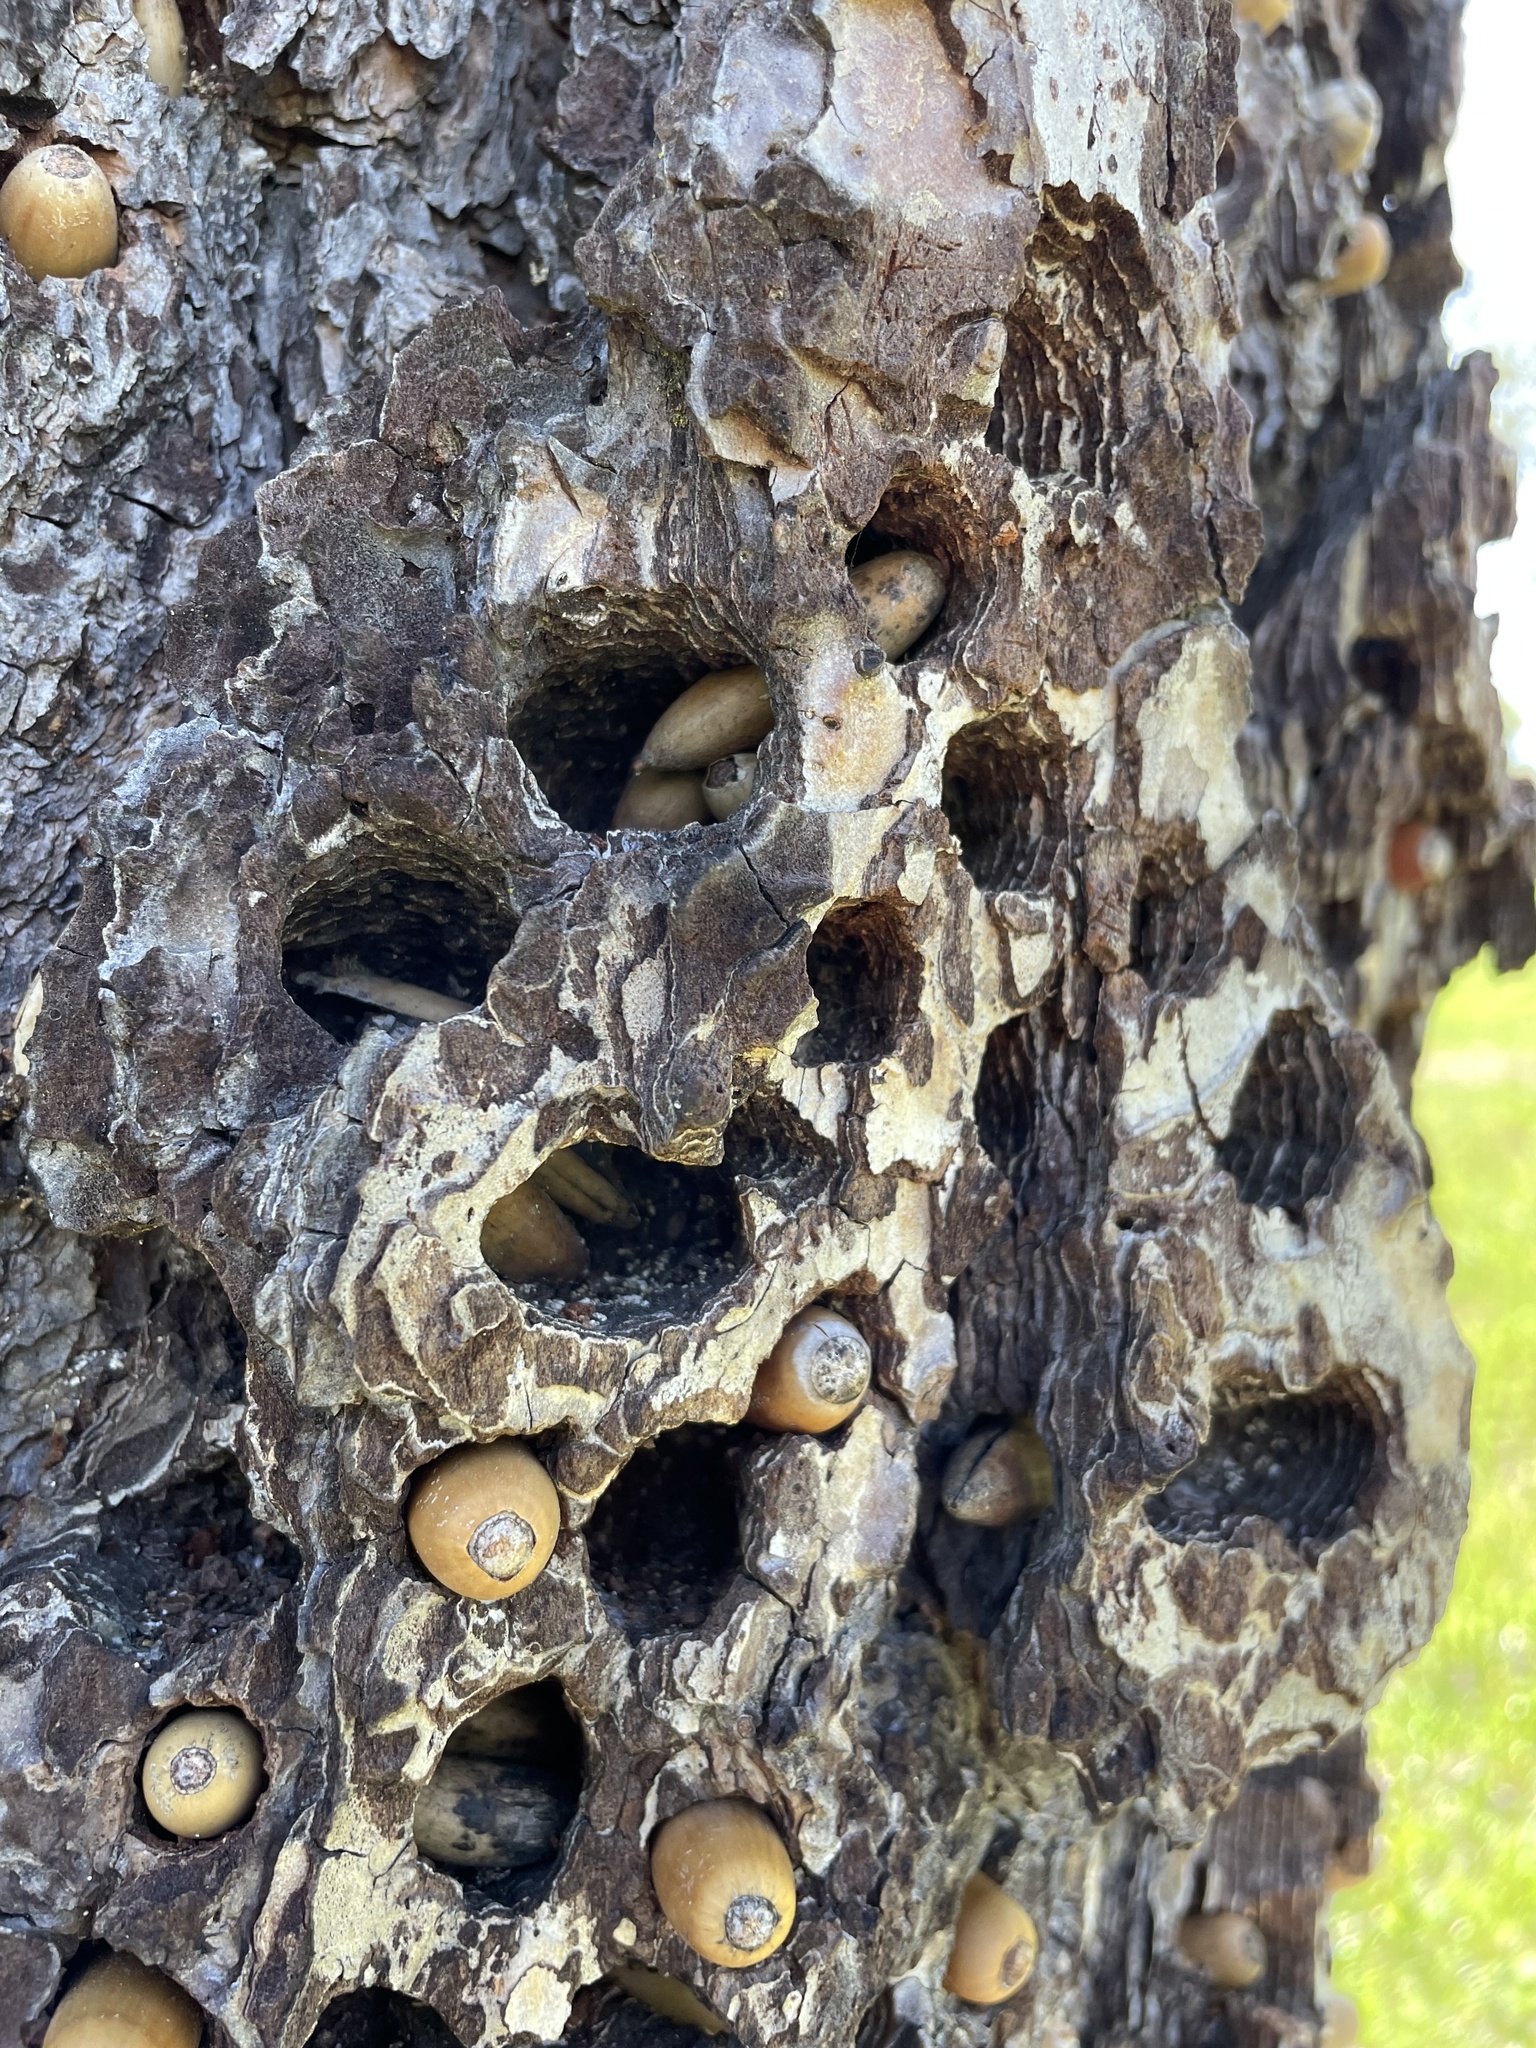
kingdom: Animalia
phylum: Chordata
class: Aves
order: Piciformes
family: Picidae
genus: Melanerpes
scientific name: Melanerpes formicivorus
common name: Acorn woodpecker
